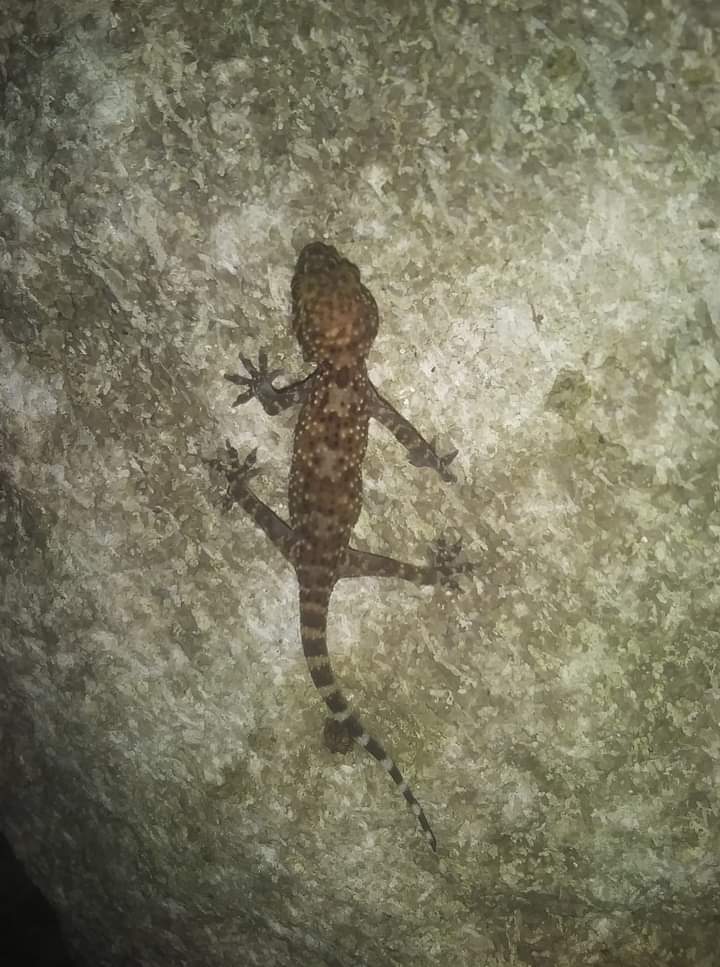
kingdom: Animalia
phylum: Chordata
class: Squamata
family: Gekkonidae
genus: Hemidactylus
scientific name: Hemidactylus turcicus
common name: Turkish gecko
